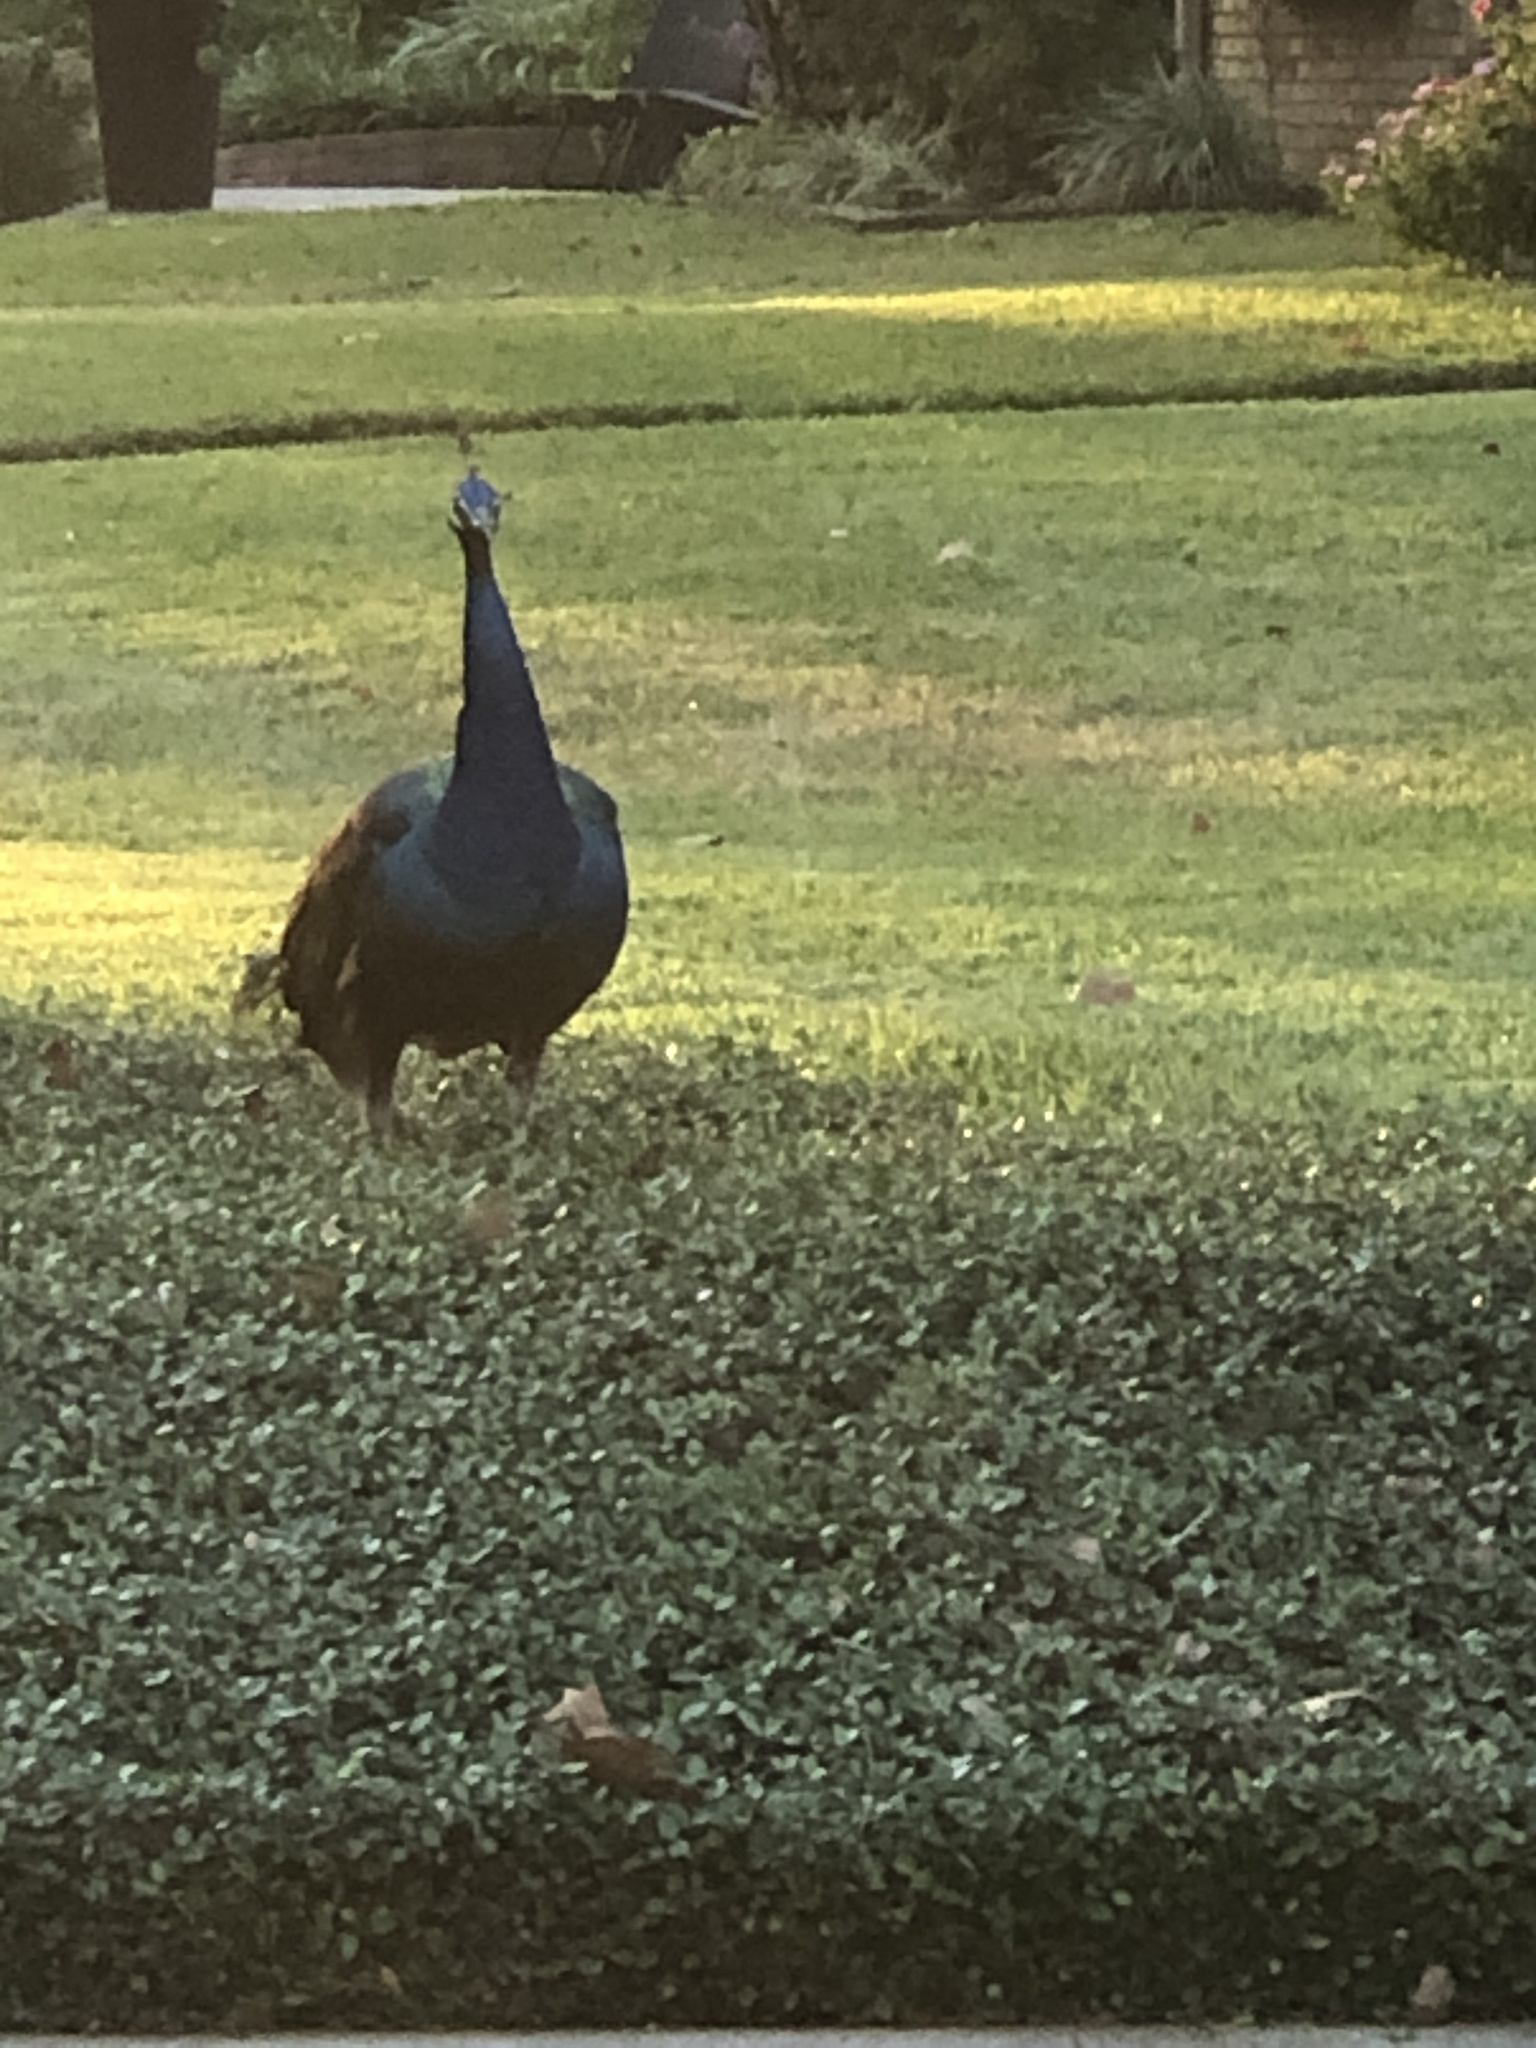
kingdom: Animalia
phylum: Chordata
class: Aves
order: Galliformes
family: Phasianidae
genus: Pavo
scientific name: Pavo
